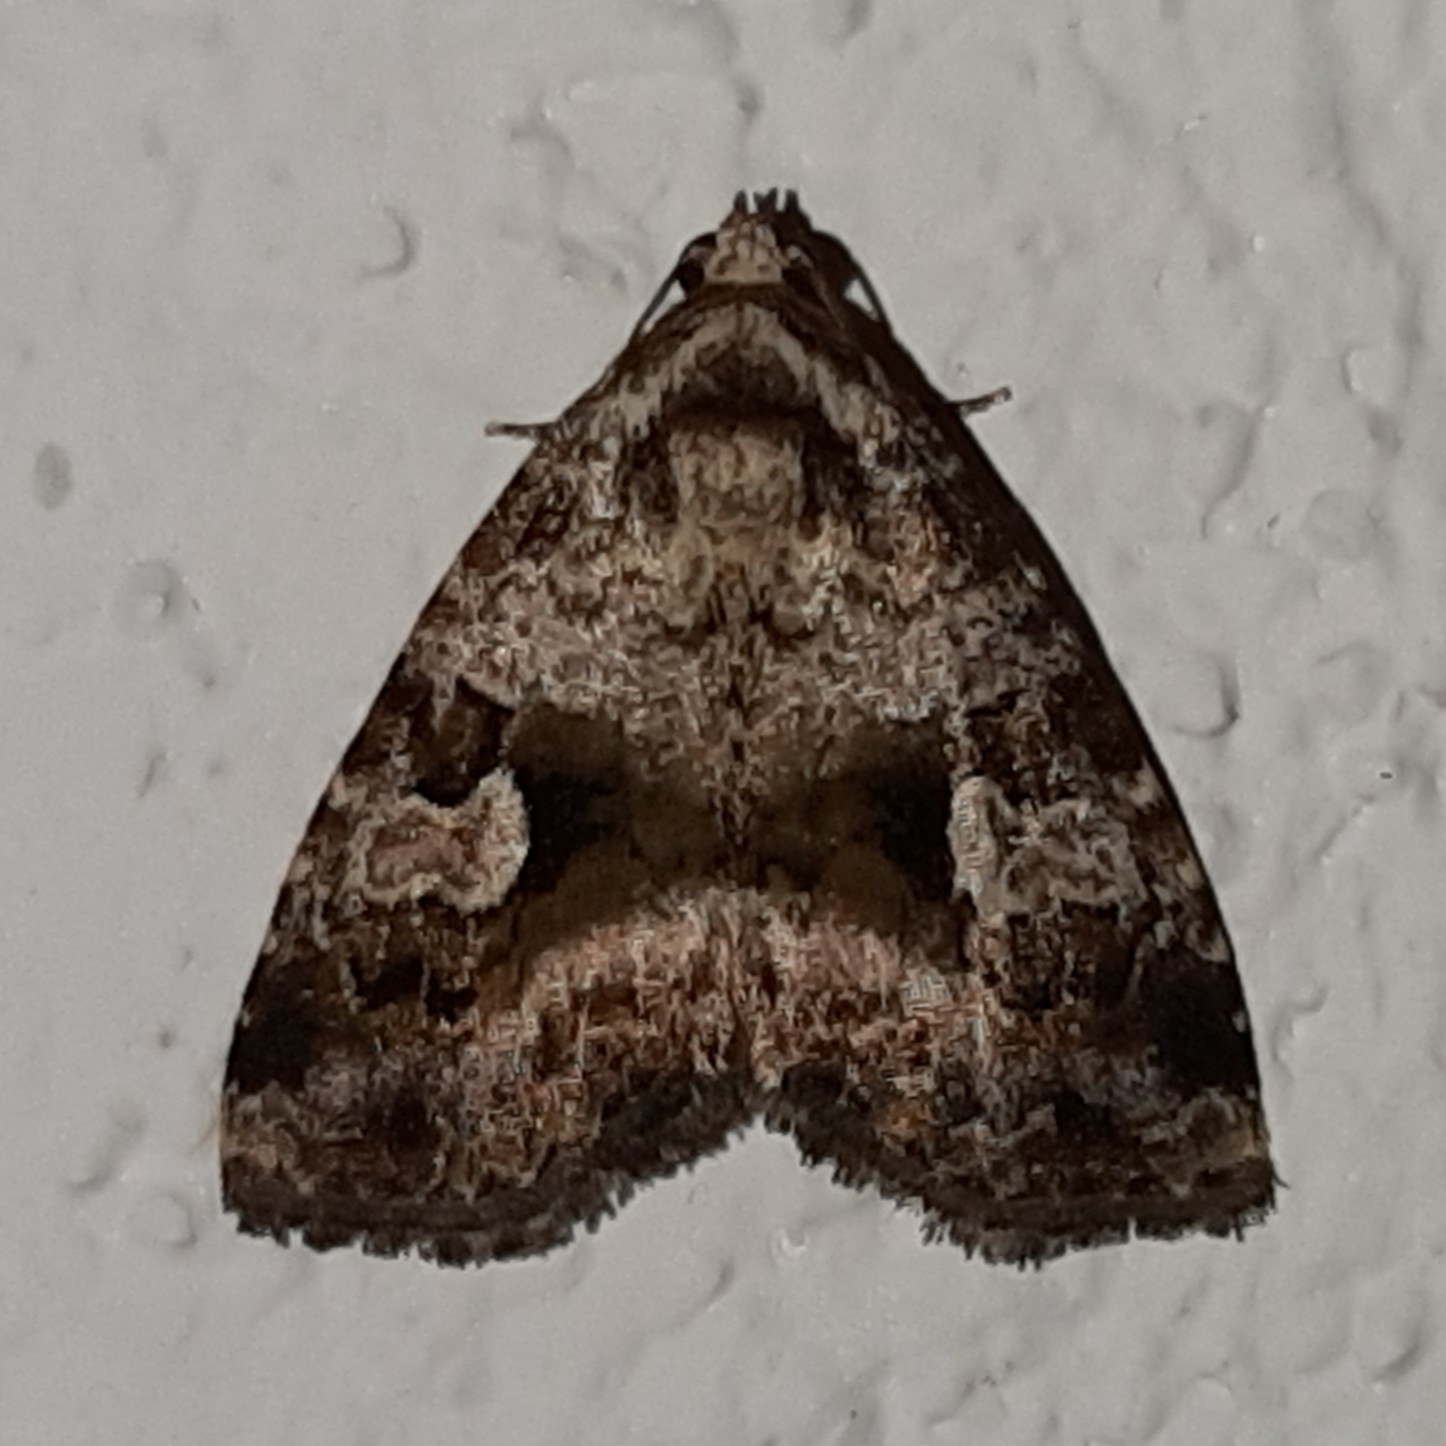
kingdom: Animalia
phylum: Arthropoda
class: Insecta
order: Lepidoptera
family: Noctuidae
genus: Mictochroa
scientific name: Mictochroa zonella
